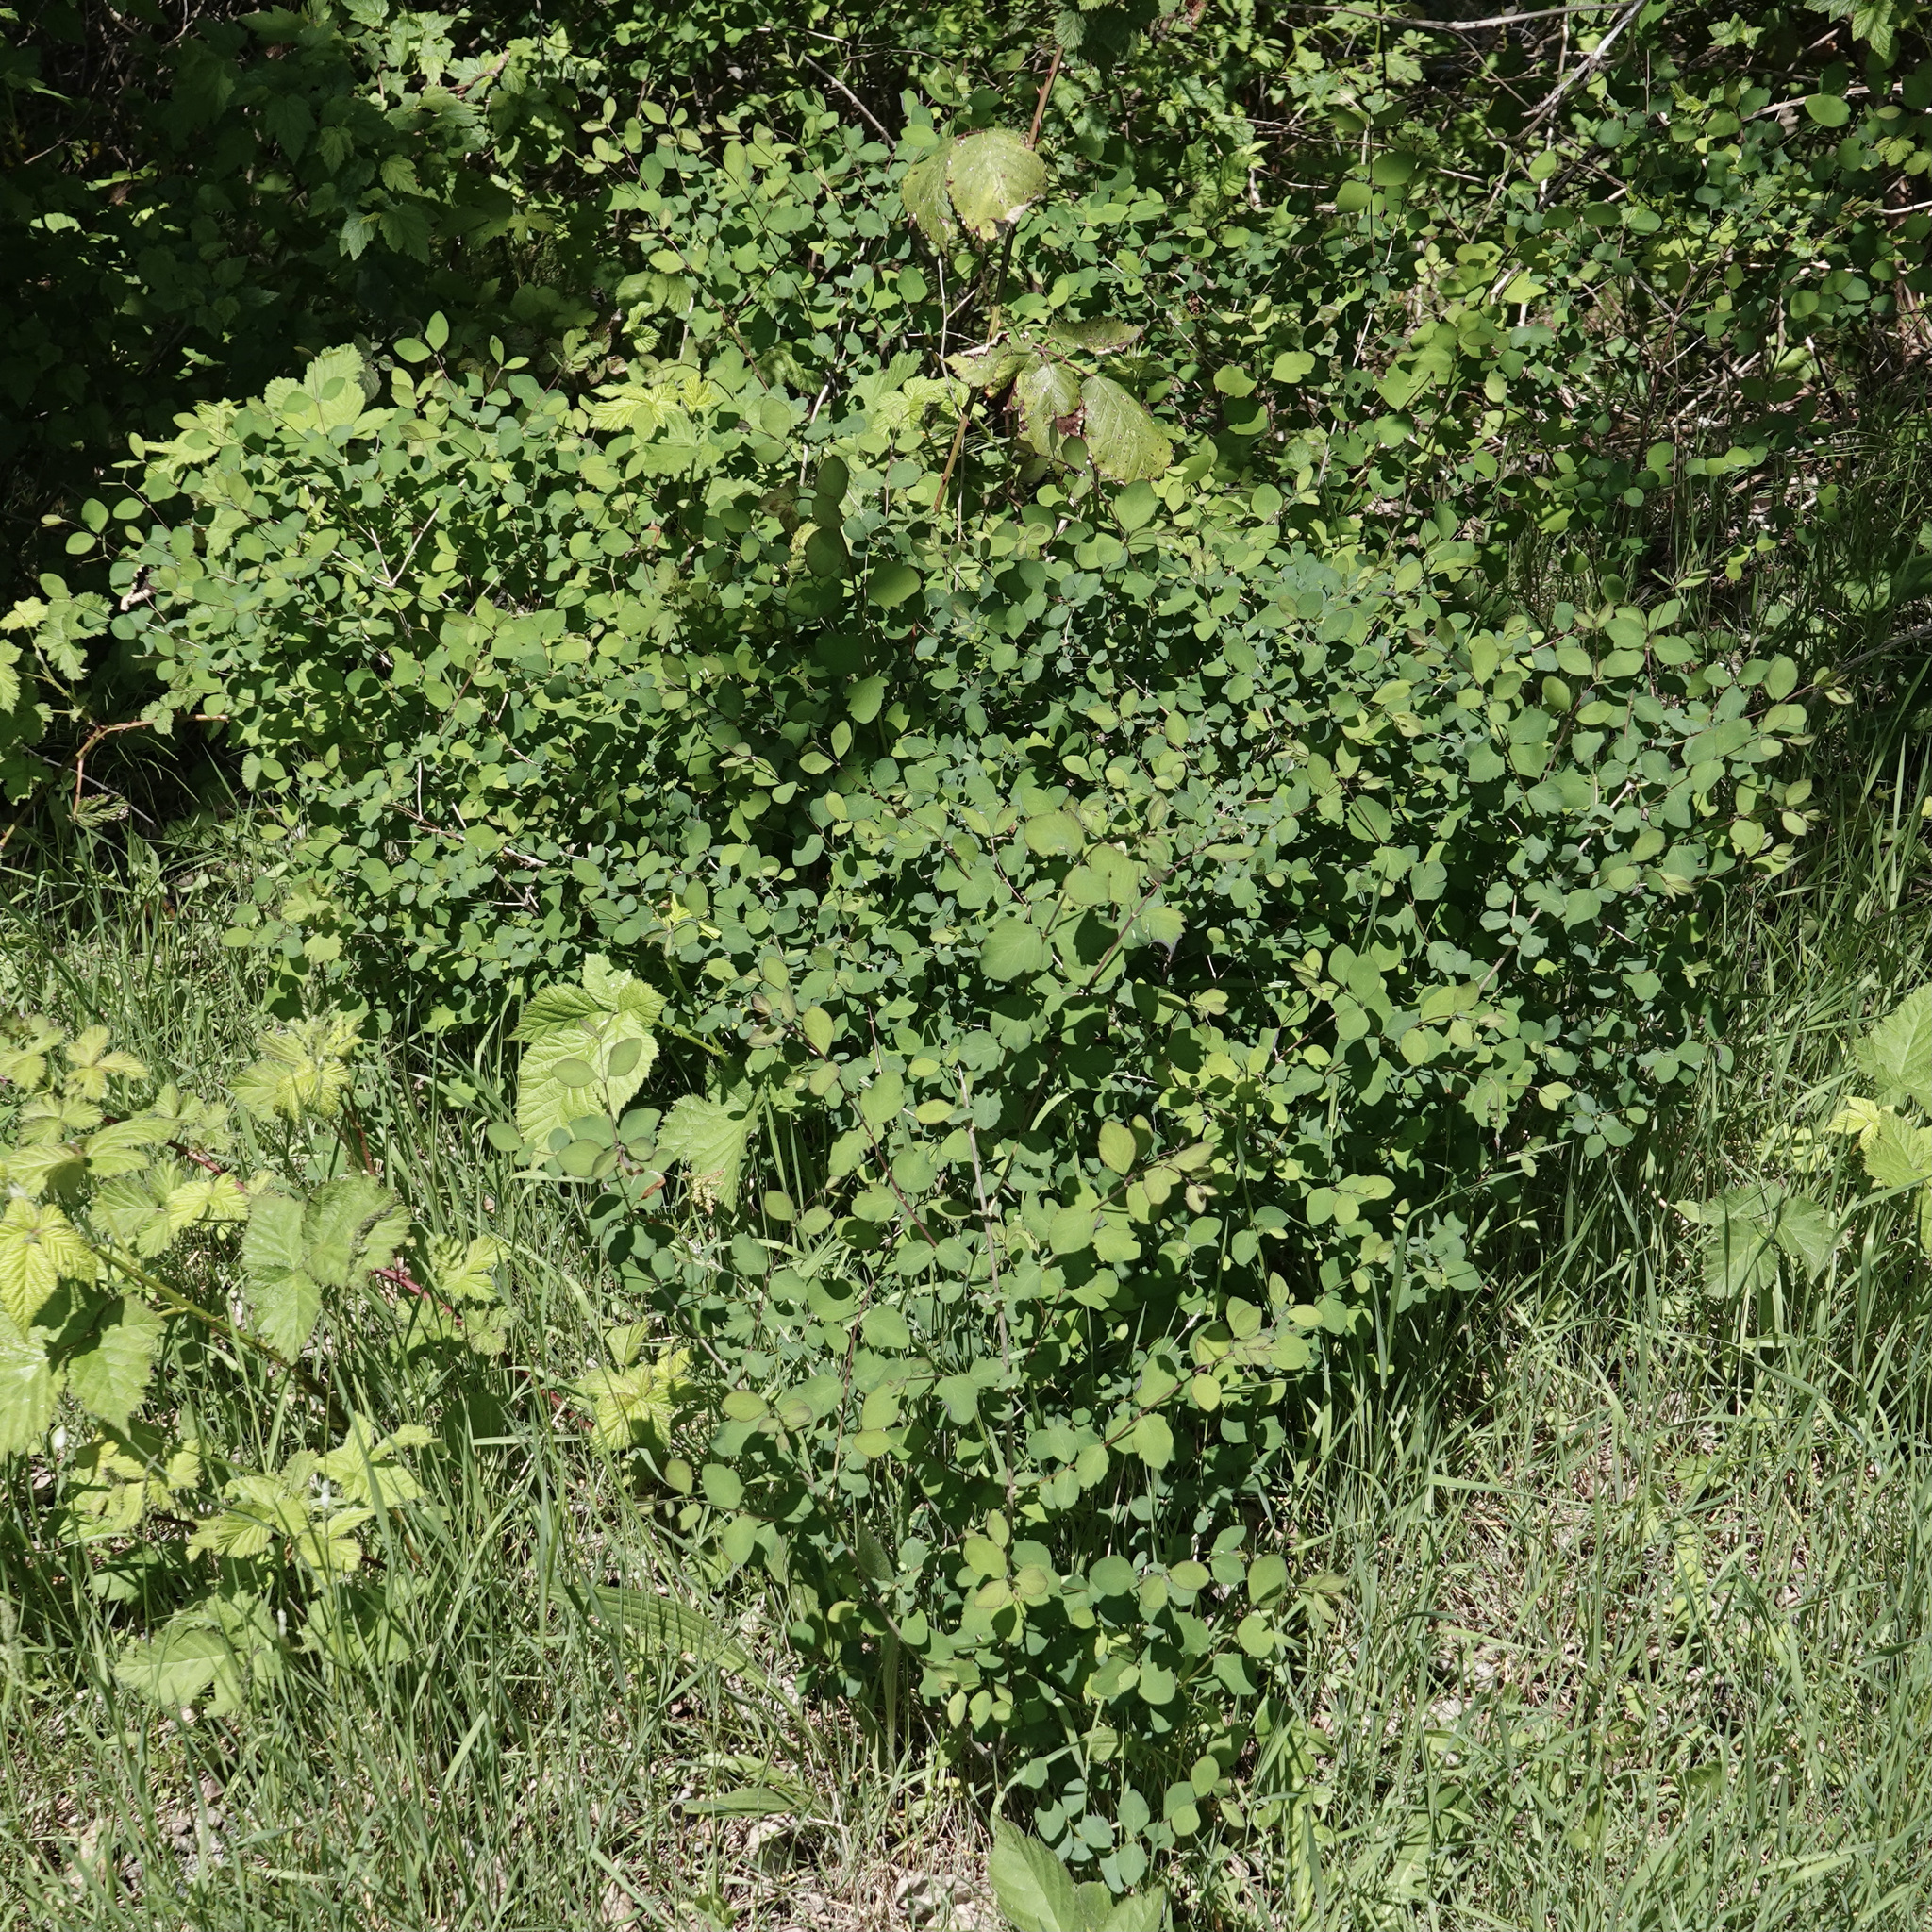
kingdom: Plantae
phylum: Tracheophyta
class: Magnoliopsida
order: Dipsacales
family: Caprifoliaceae
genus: Symphoricarpos
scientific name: Symphoricarpos albus
